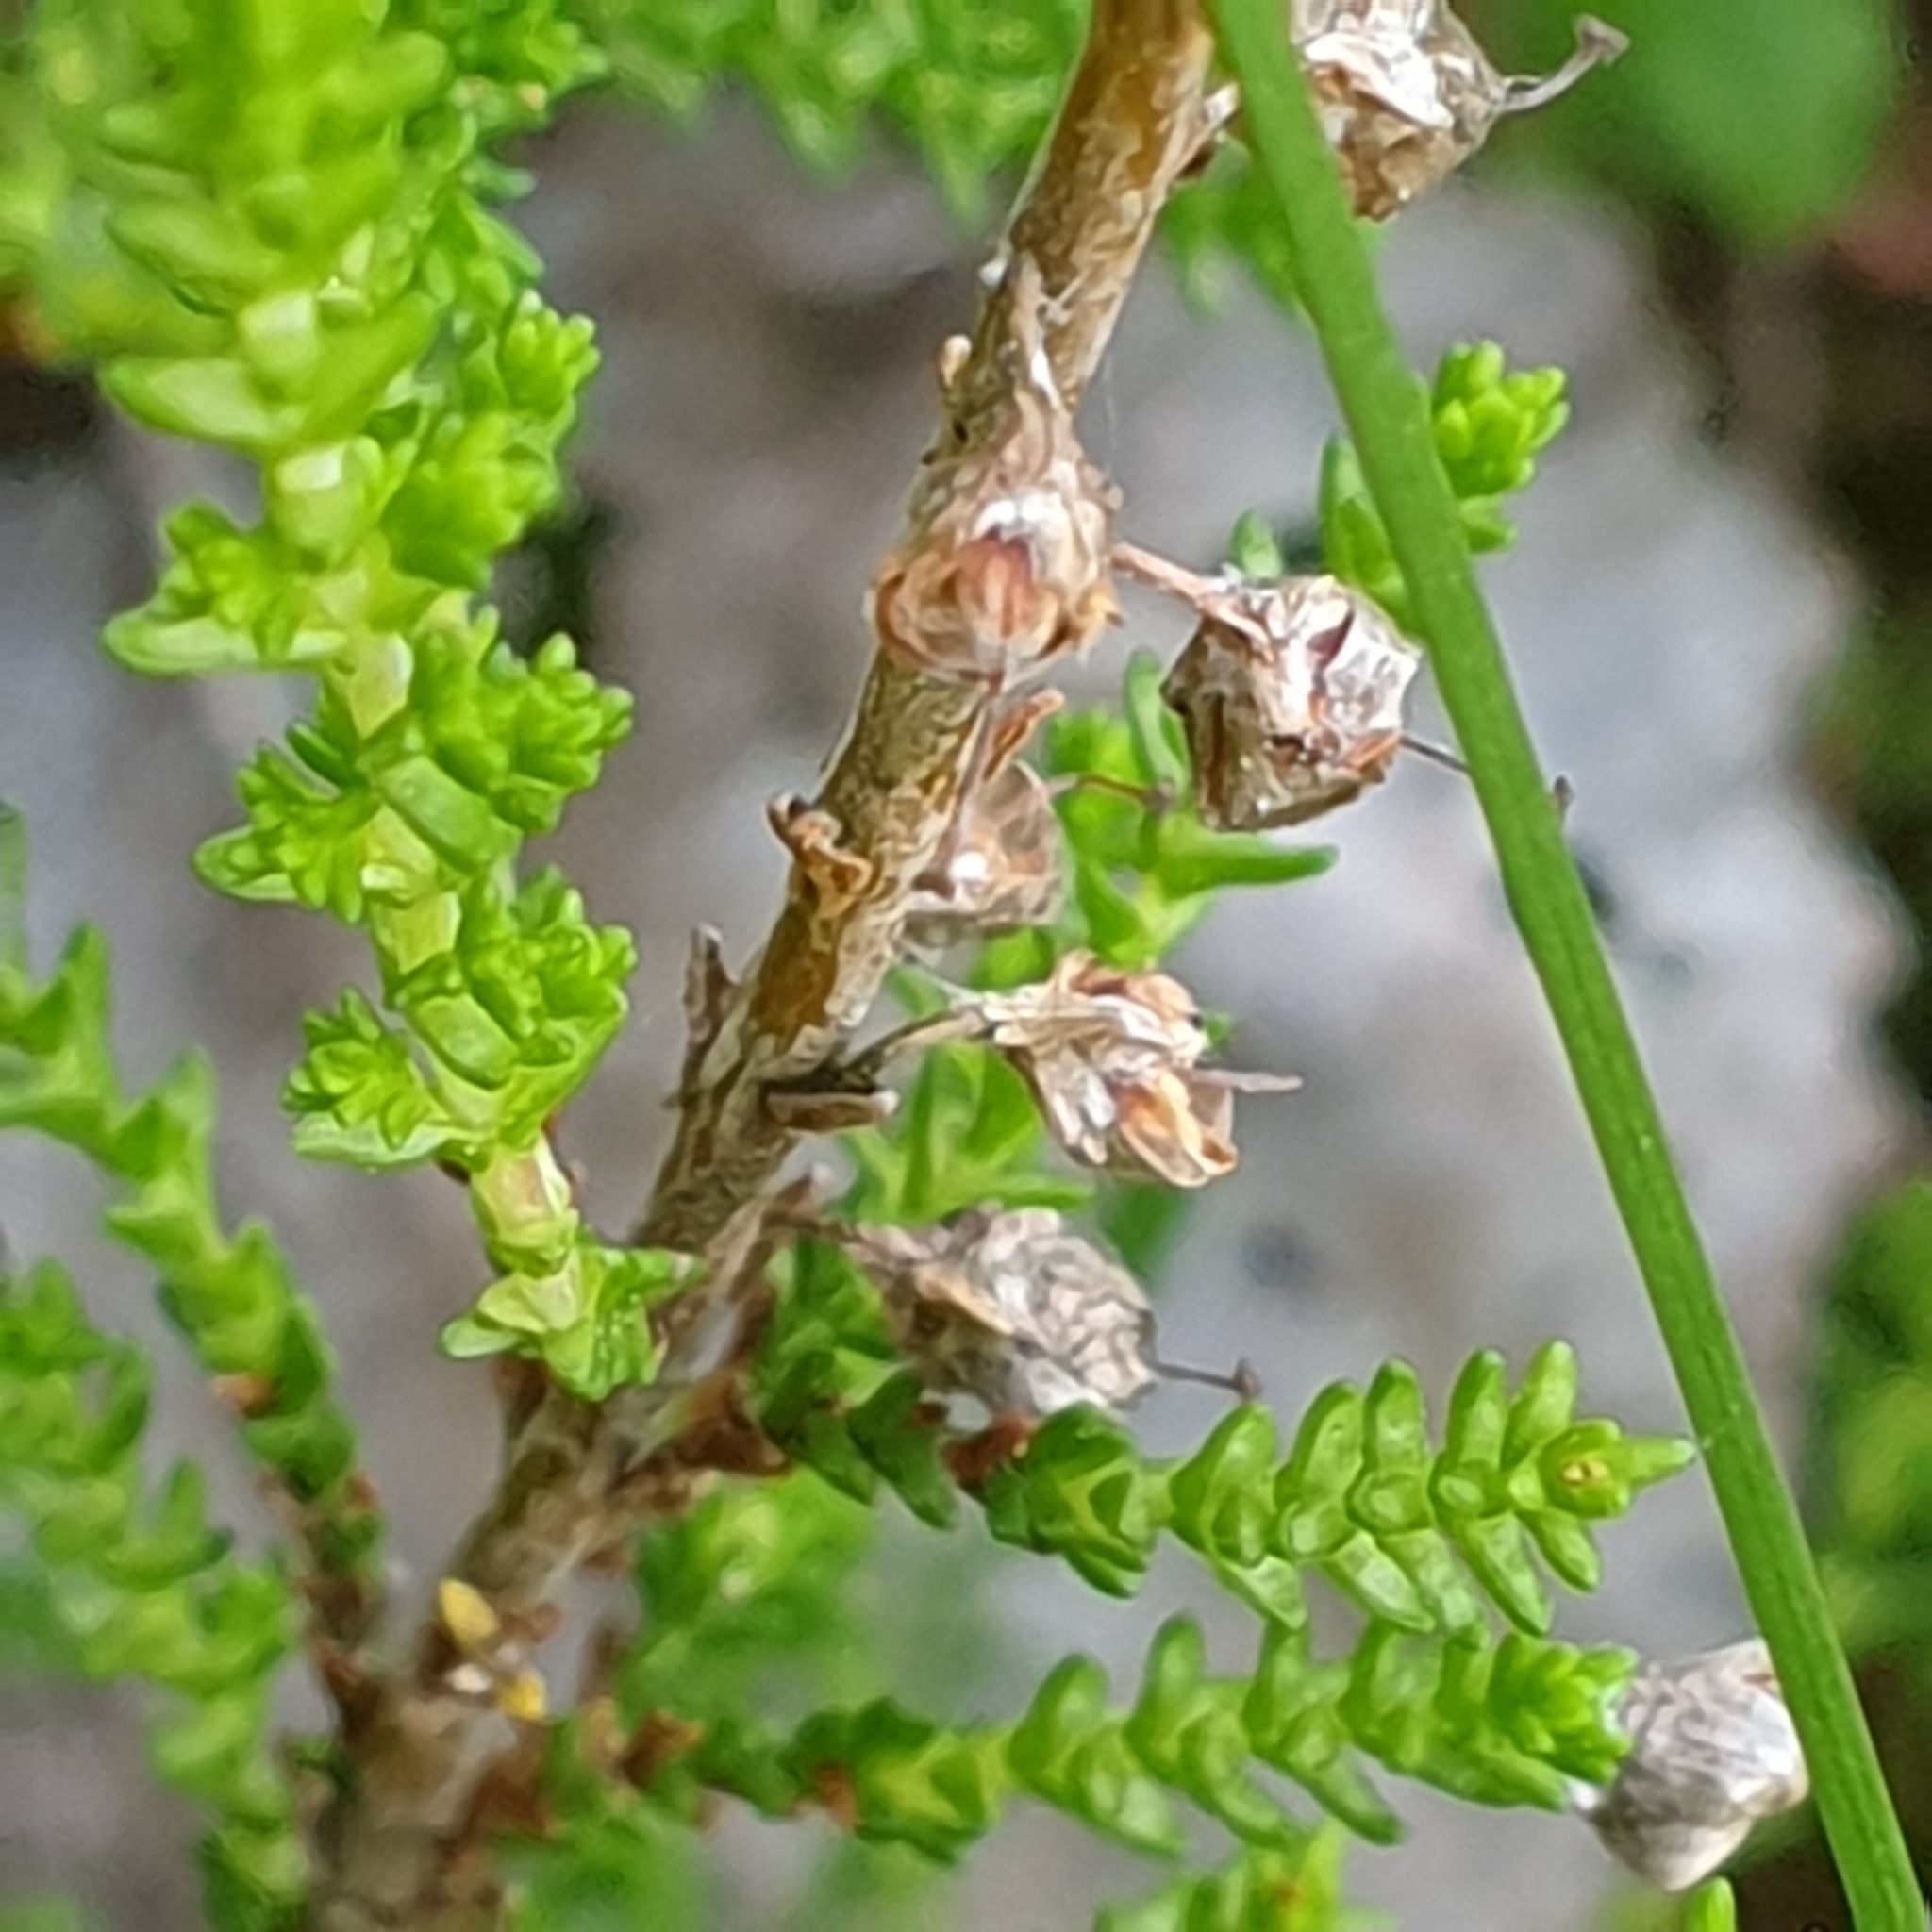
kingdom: Plantae
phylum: Tracheophyta
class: Magnoliopsida
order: Ericales
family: Ericaceae
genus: Calluna
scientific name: Calluna vulgaris
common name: Heather
